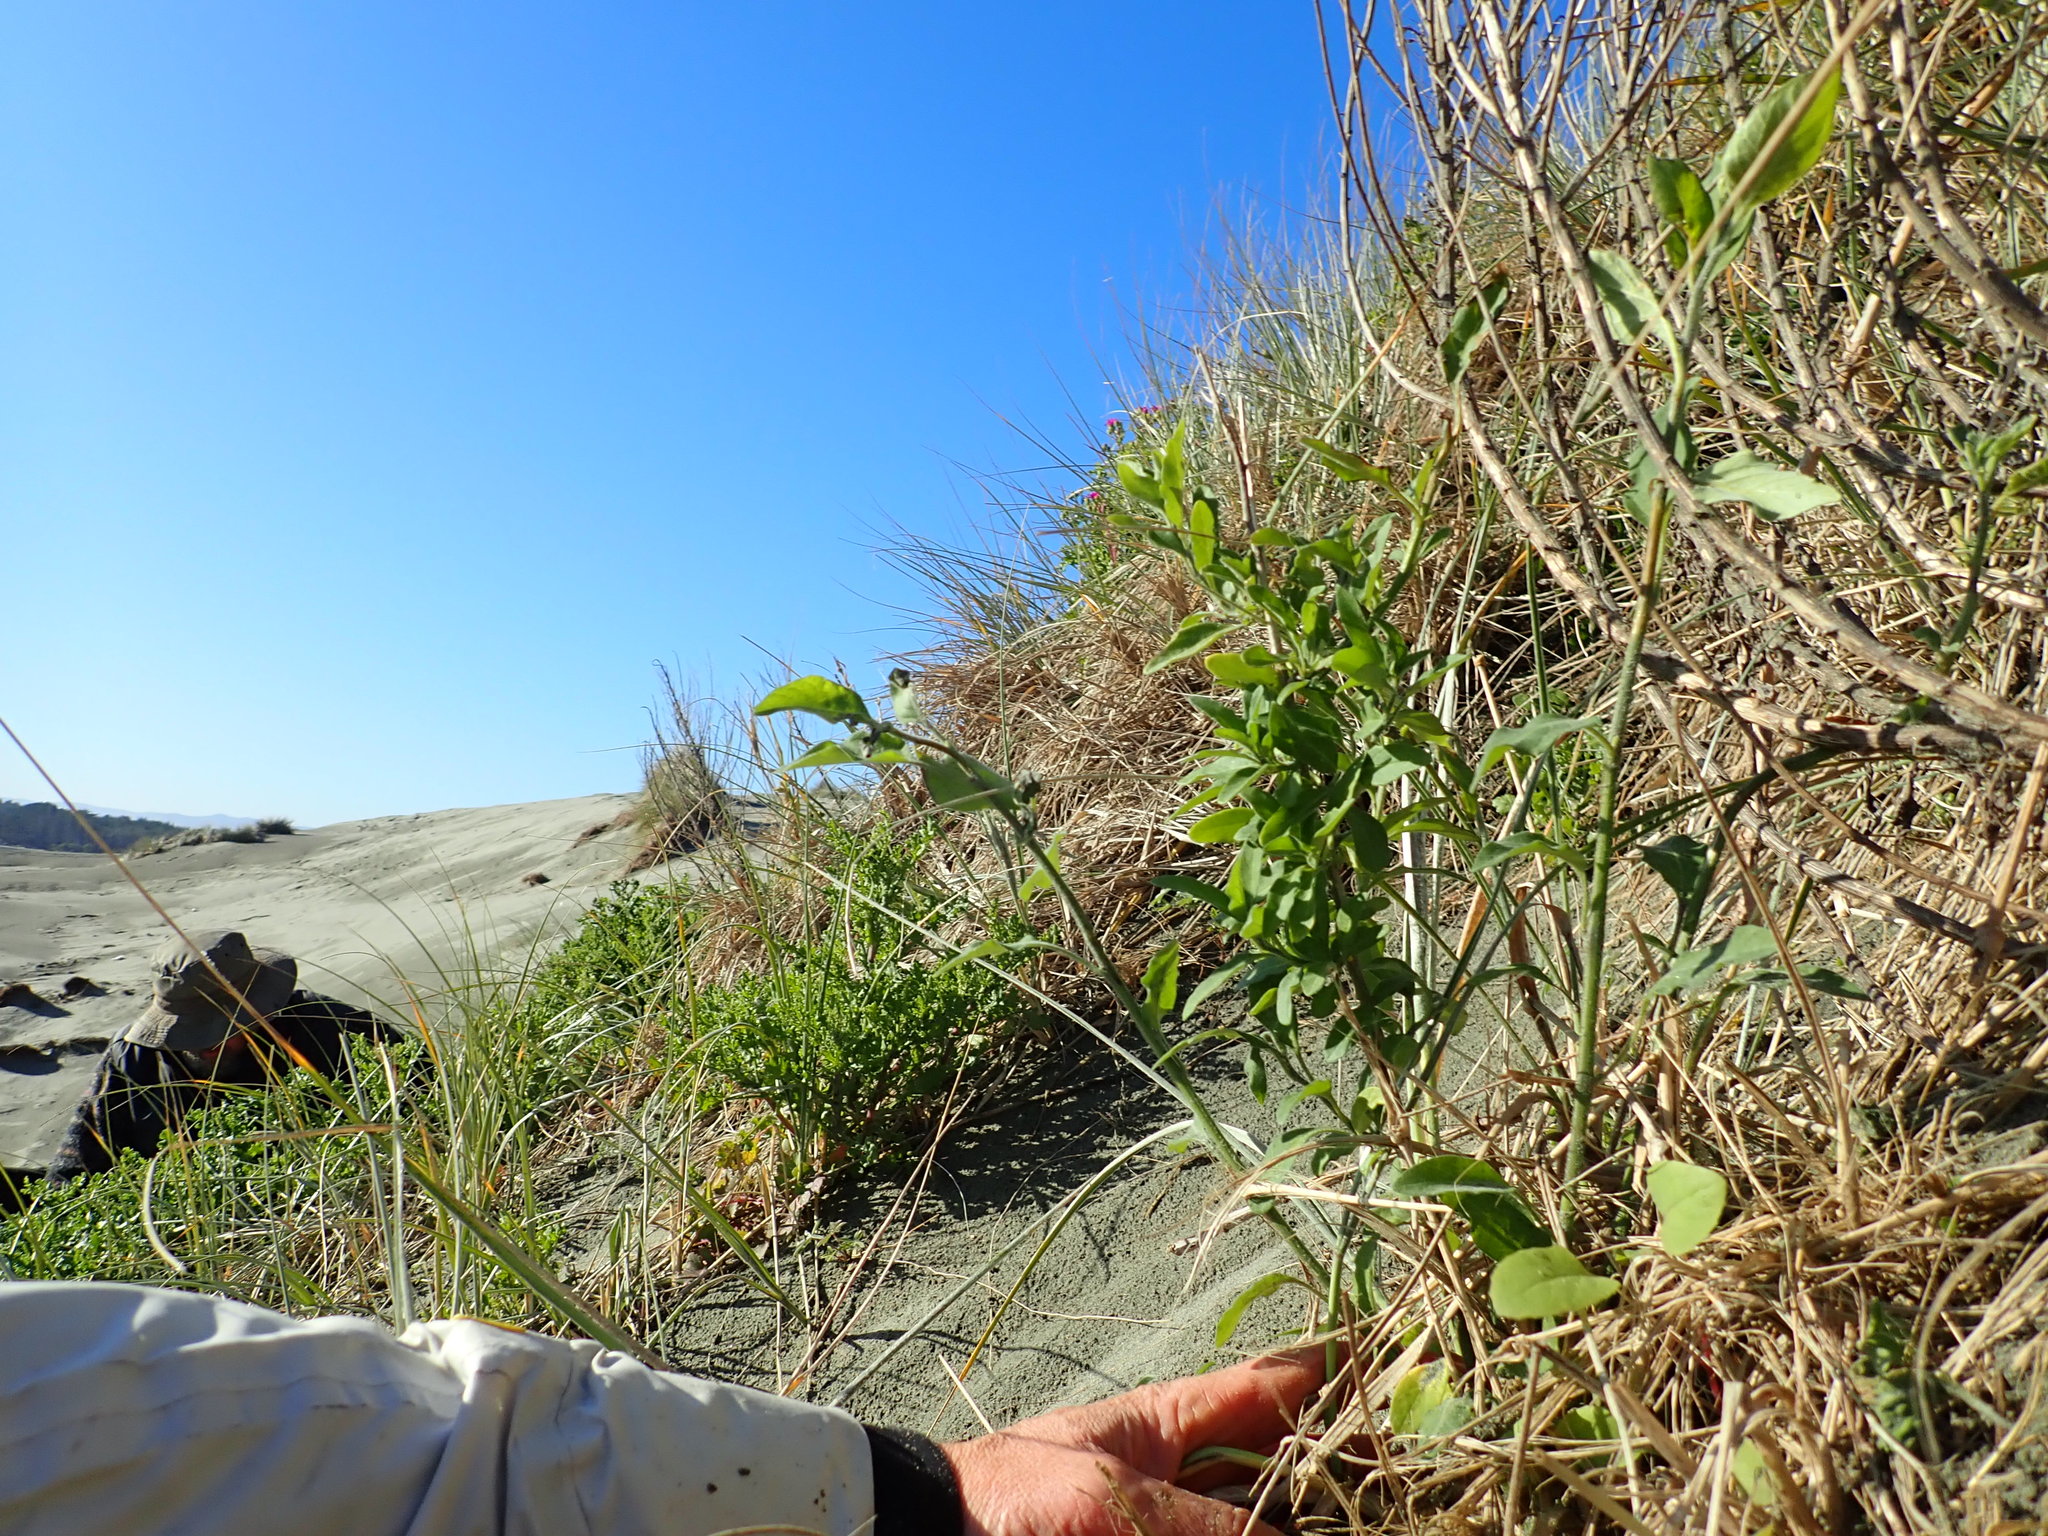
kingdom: Plantae
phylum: Tracheophyta
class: Magnoliopsida
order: Solanales
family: Solanaceae
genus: Solanum
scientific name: Solanum chenopodioides
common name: Tall nightshade
